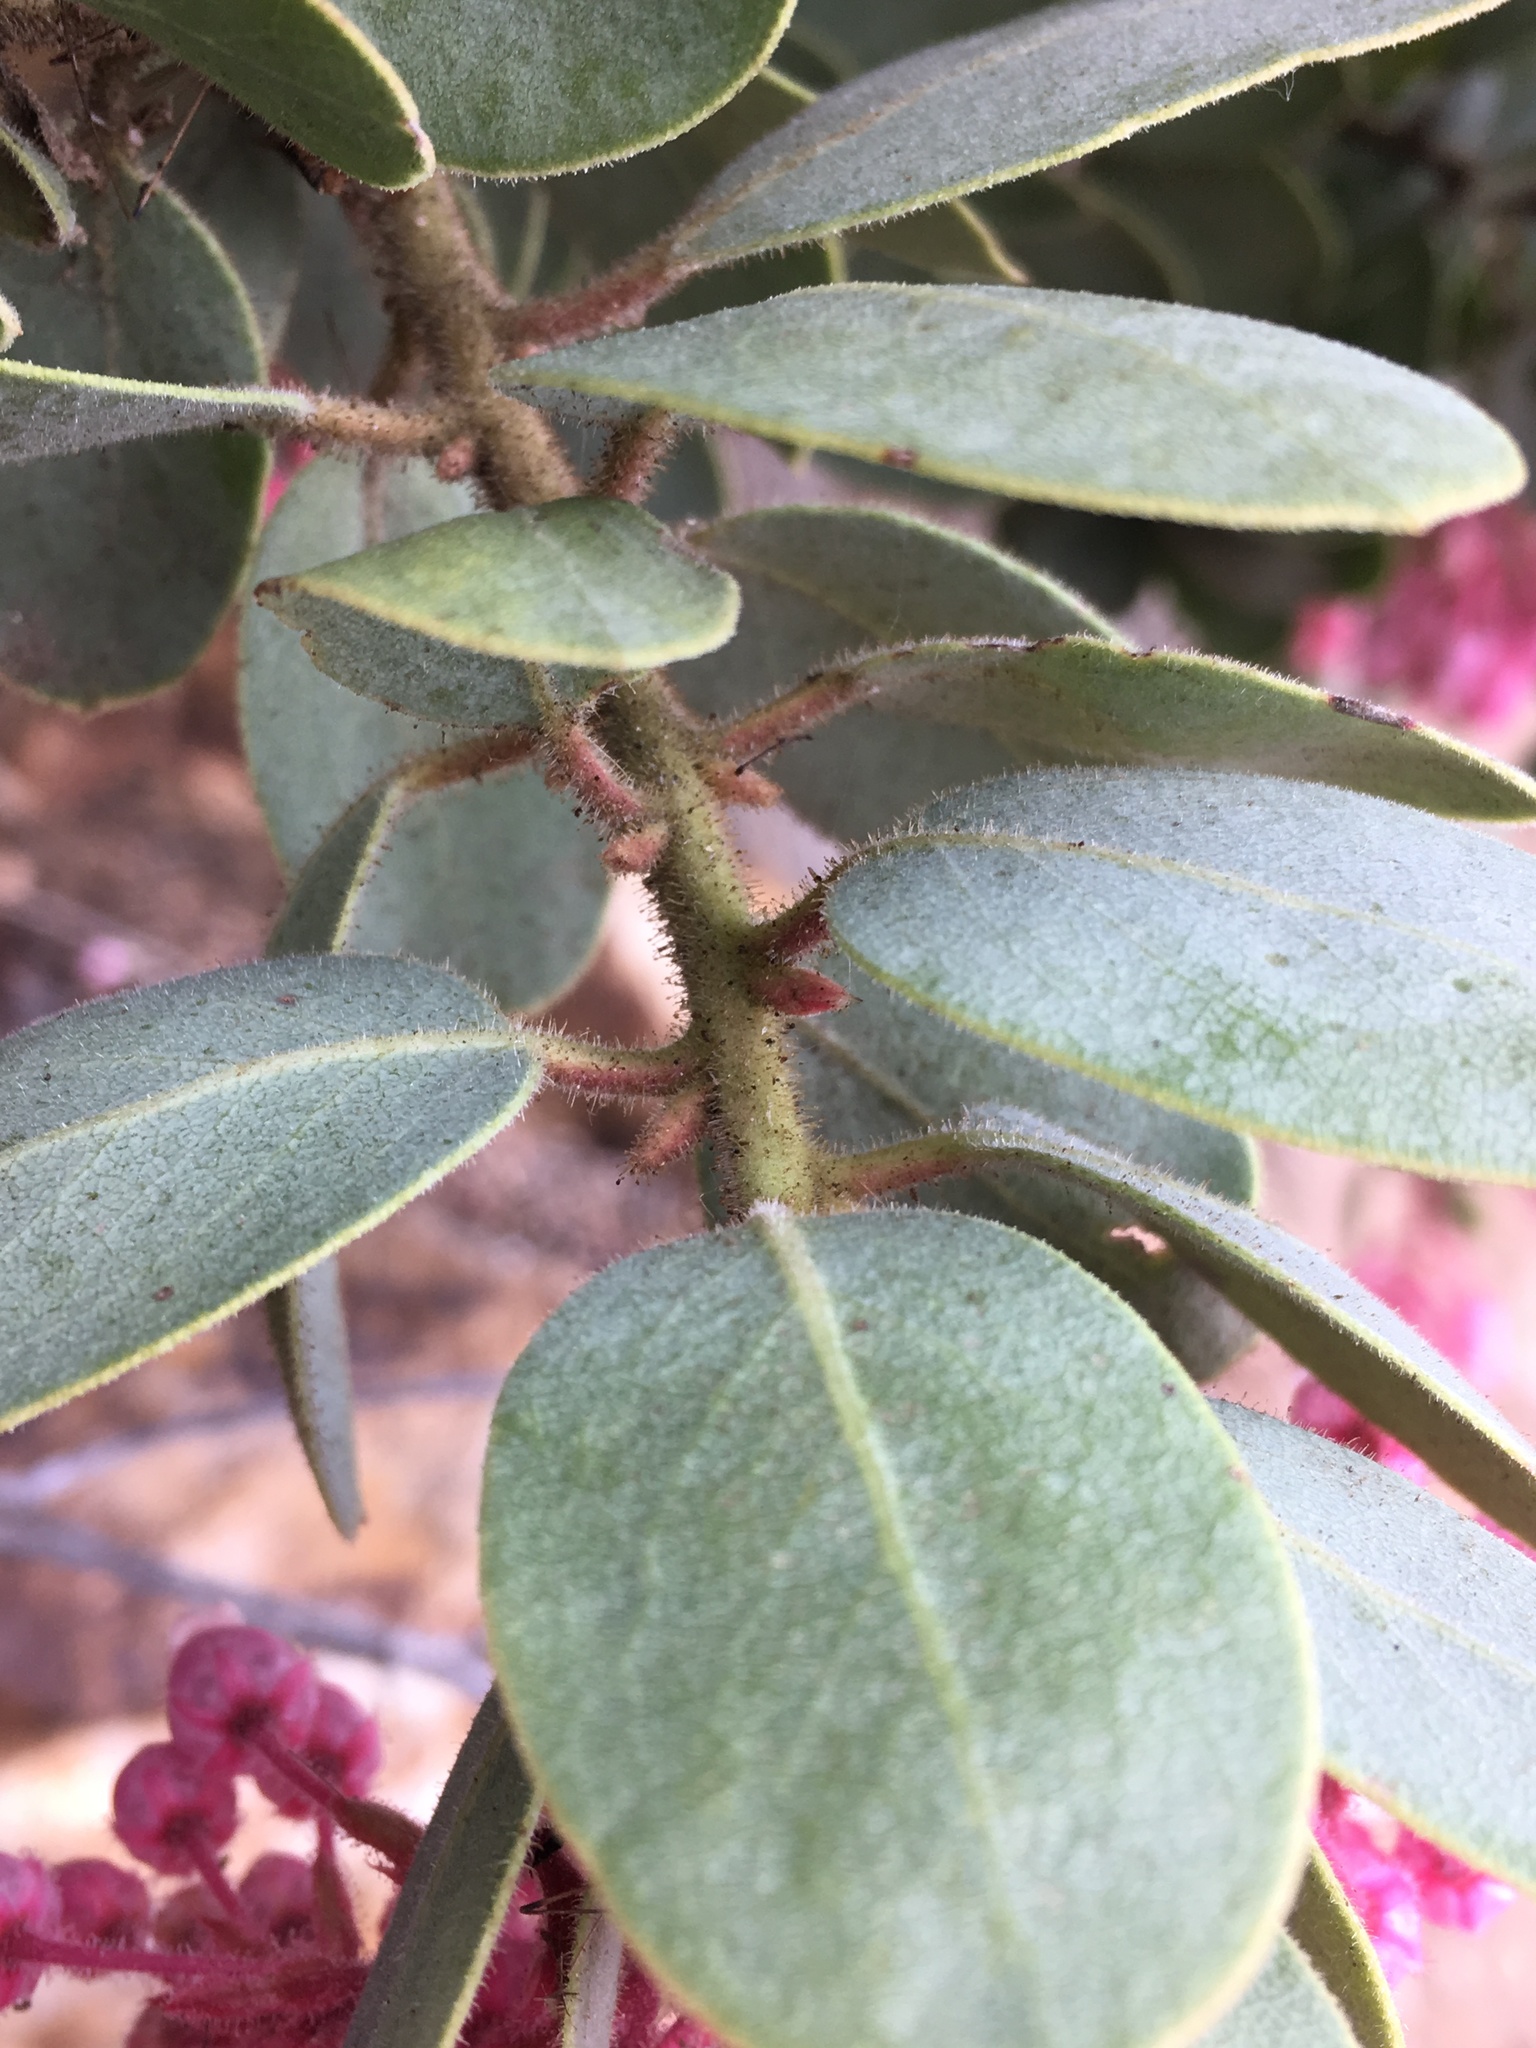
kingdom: Plantae
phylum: Tracheophyta
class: Magnoliopsida
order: Ericales
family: Ericaceae
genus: Arctostaphylos
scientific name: Arctostaphylos pringlei
